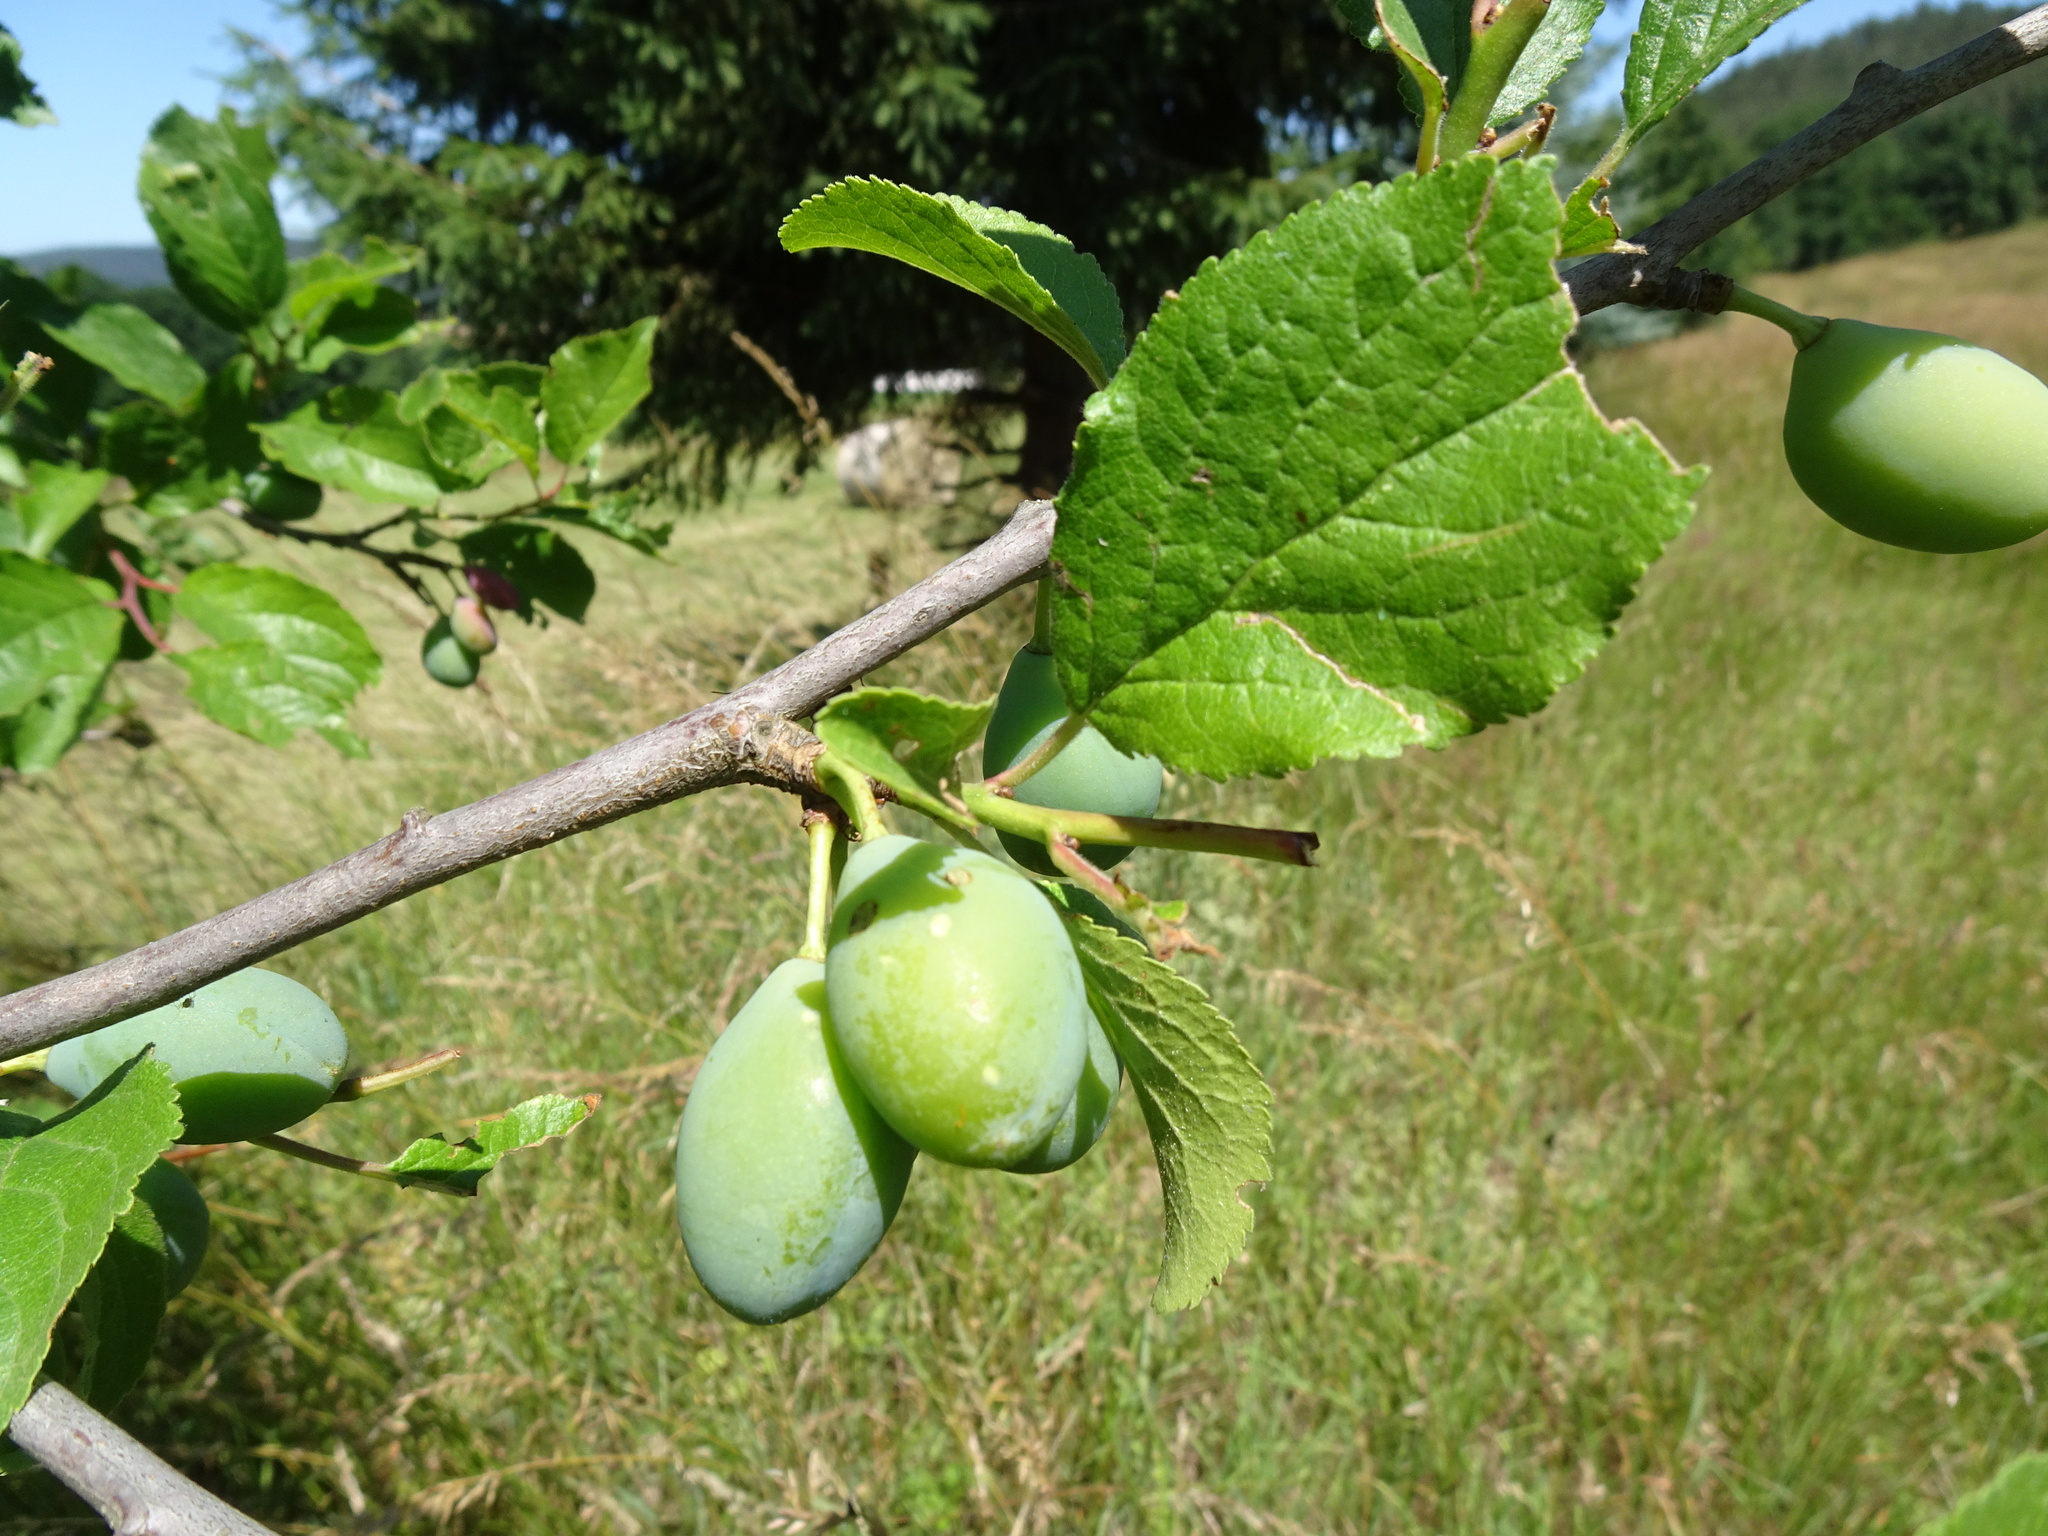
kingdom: Plantae
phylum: Tracheophyta
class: Magnoliopsida
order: Rosales
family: Rosaceae
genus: Prunus
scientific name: Prunus domestica
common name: Wild plum
